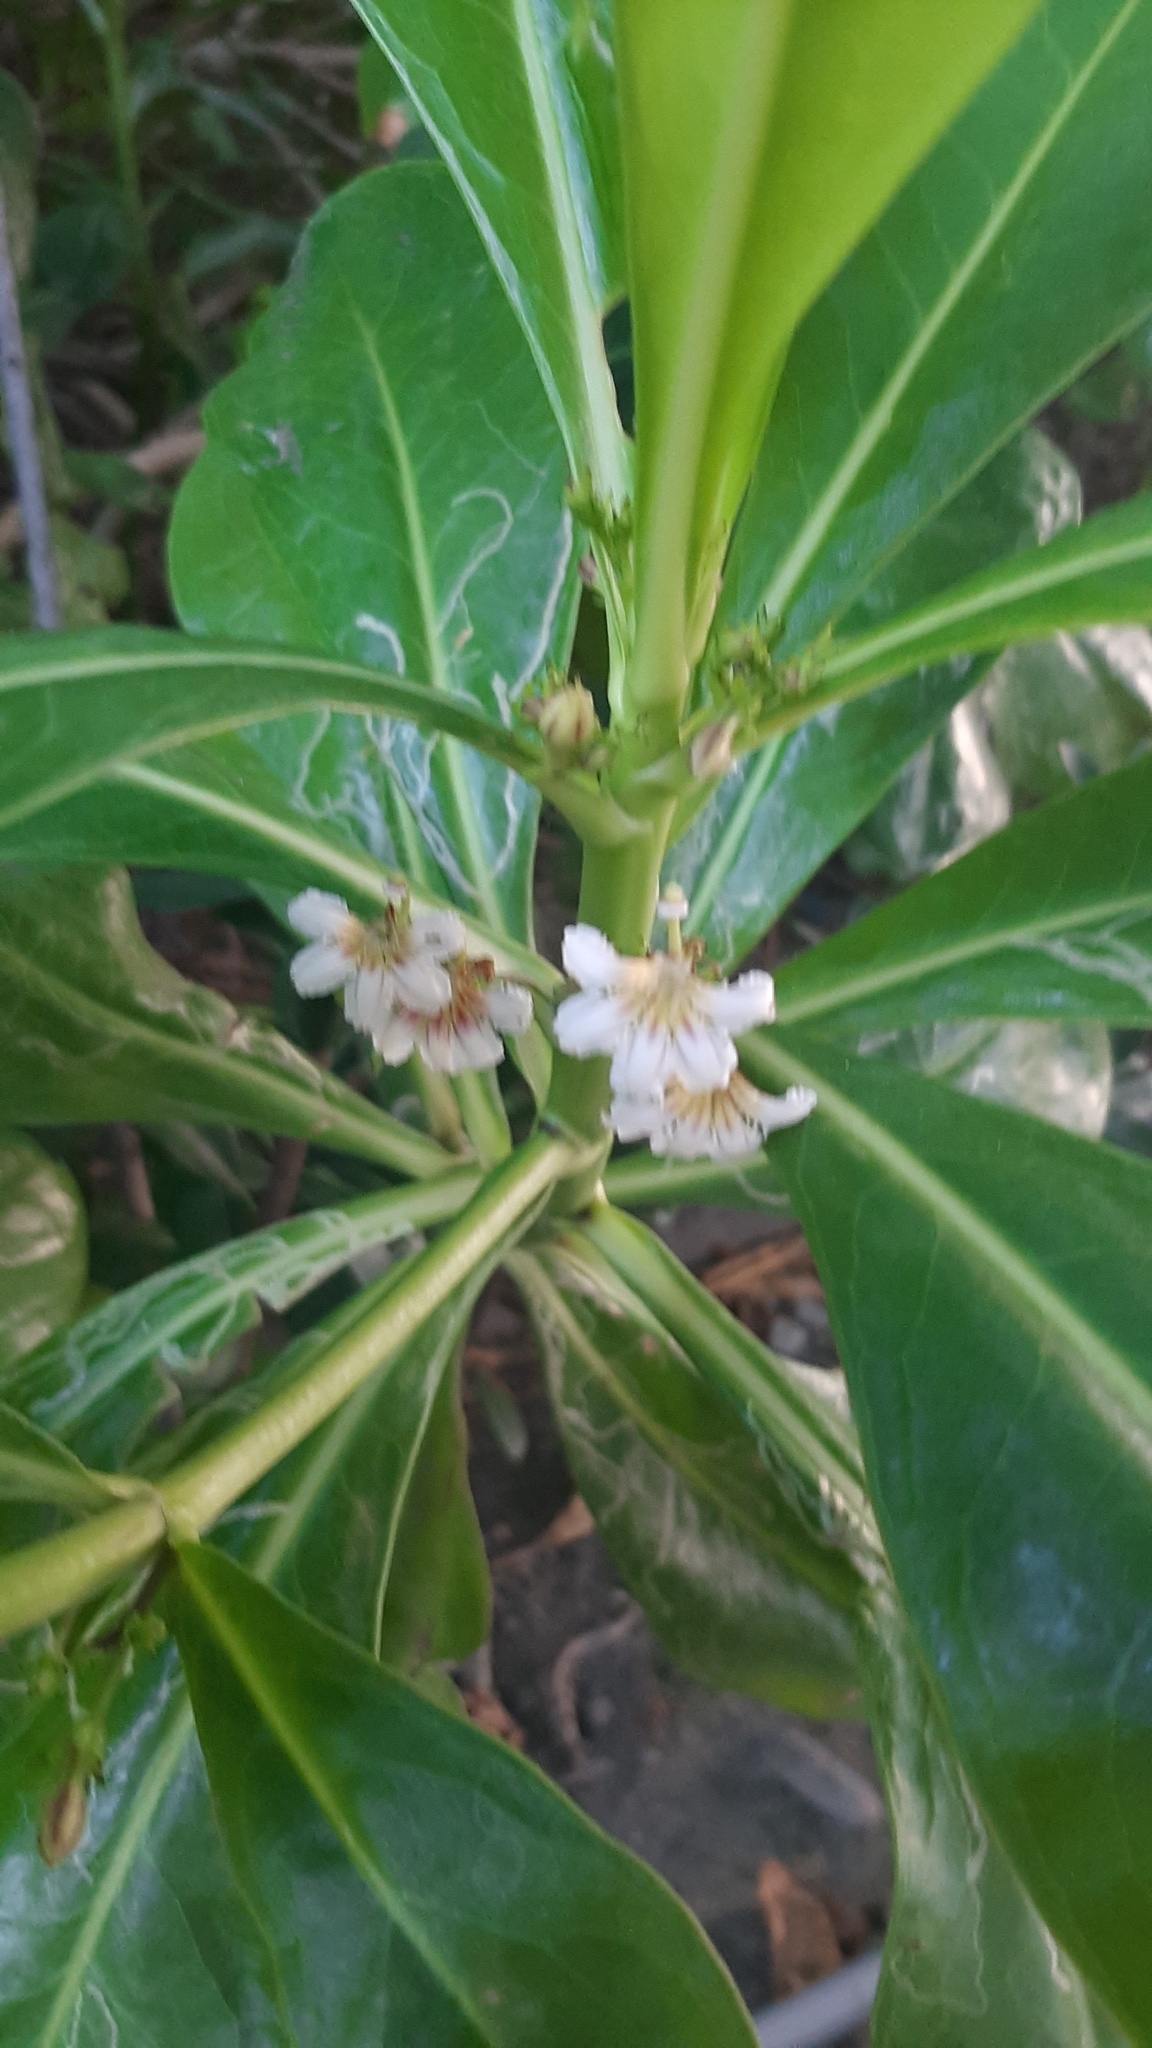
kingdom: Plantae
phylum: Tracheophyta
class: Magnoliopsida
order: Asterales
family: Goodeniaceae
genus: Scaevola
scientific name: Scaevola taccada
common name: Sea lettucetree
